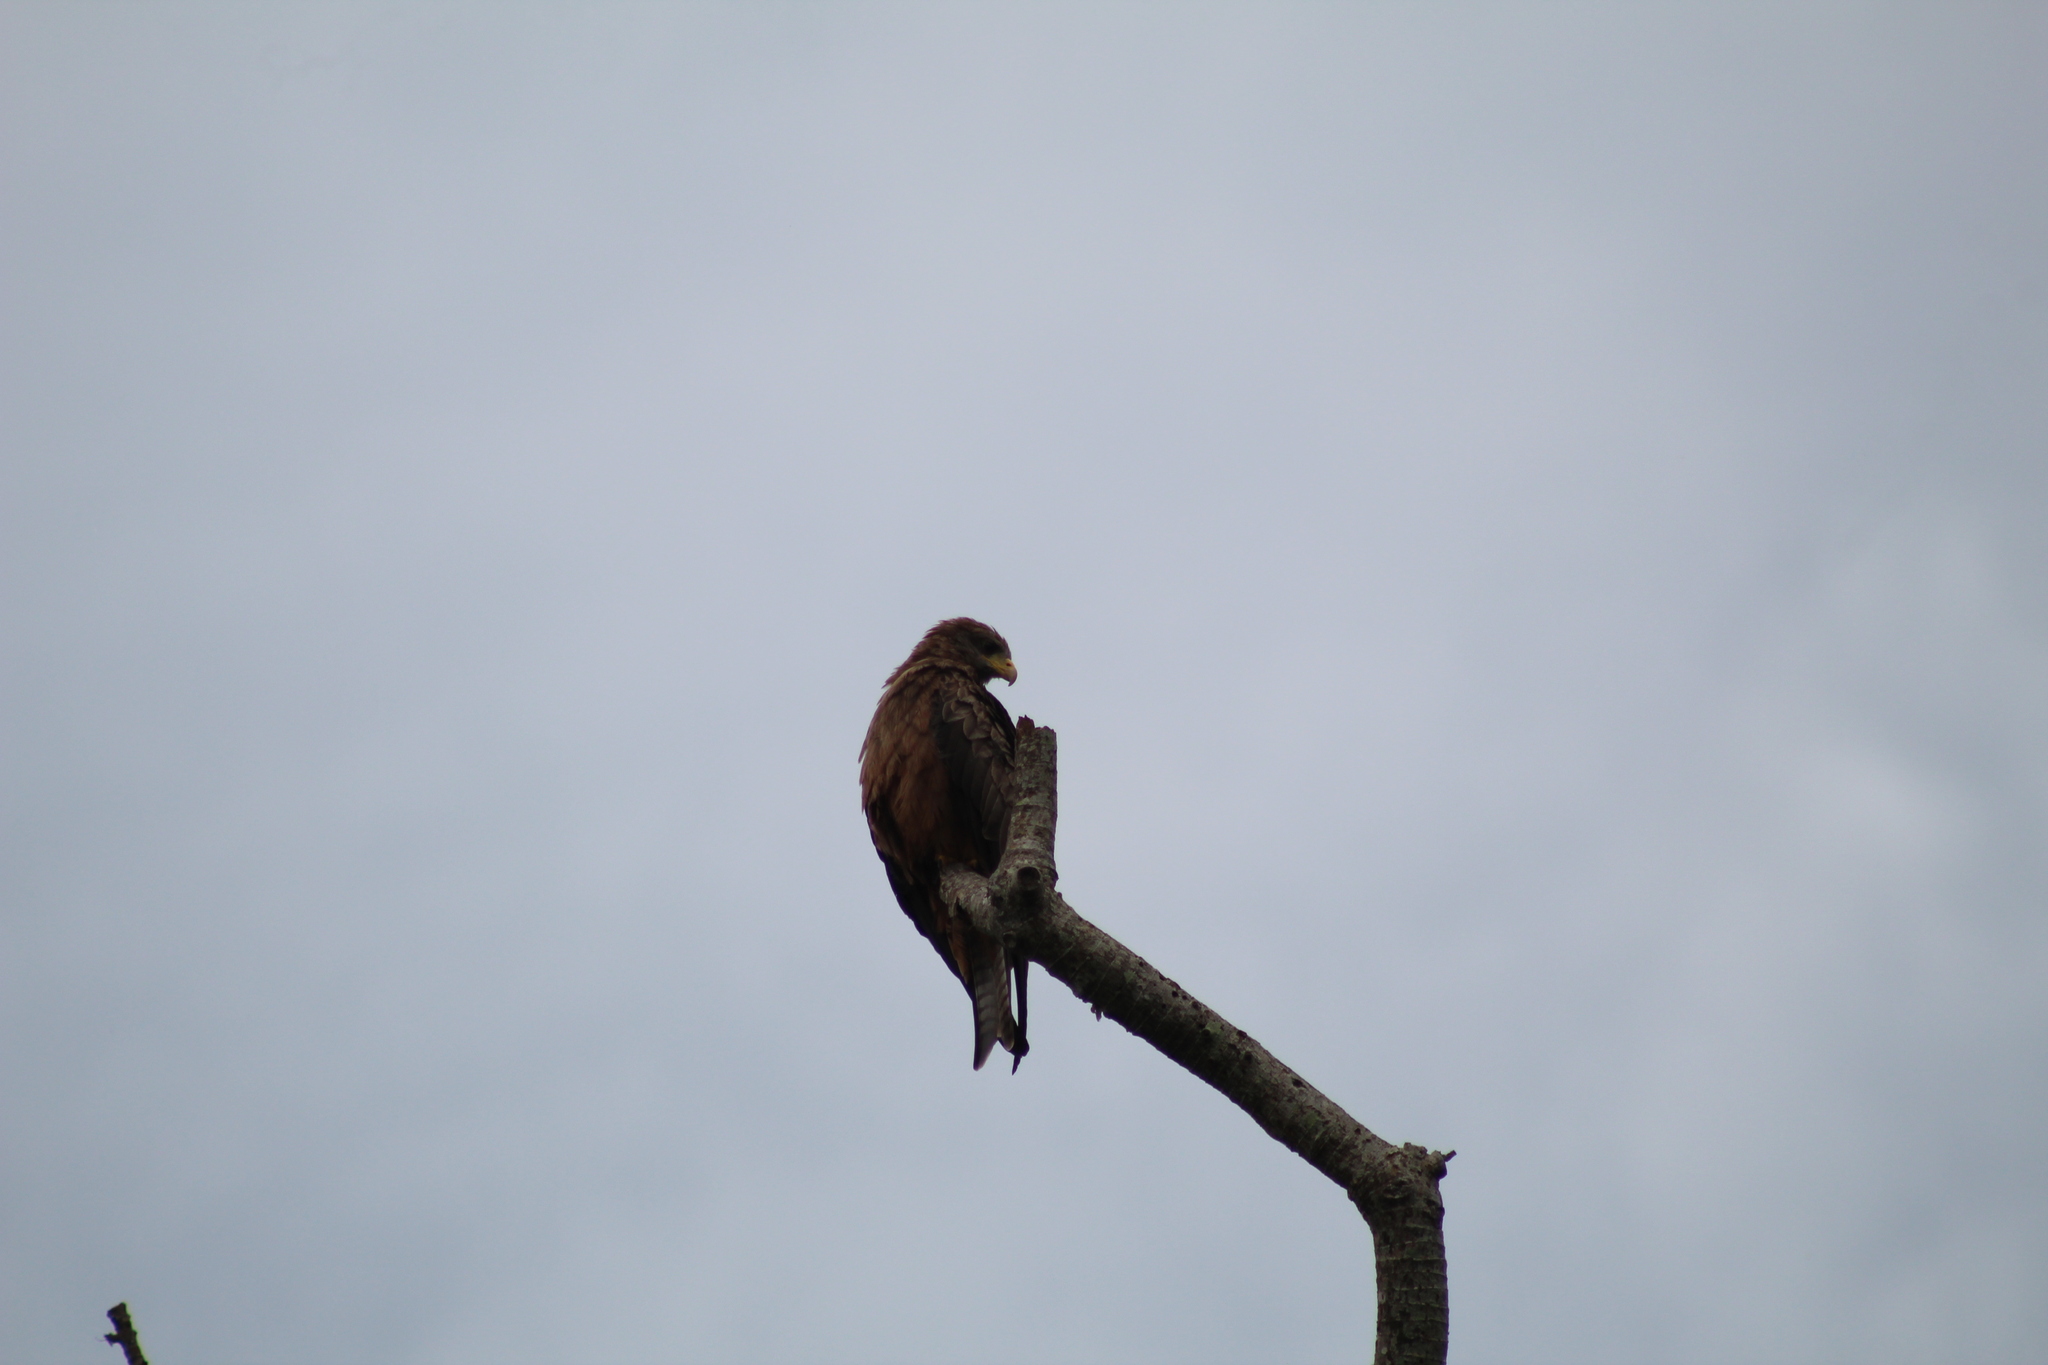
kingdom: Animalia
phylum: Chordata
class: Aves
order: Accipitriformes
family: Accipitridae
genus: Milvus
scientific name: Milvus migrans
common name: Black kite
